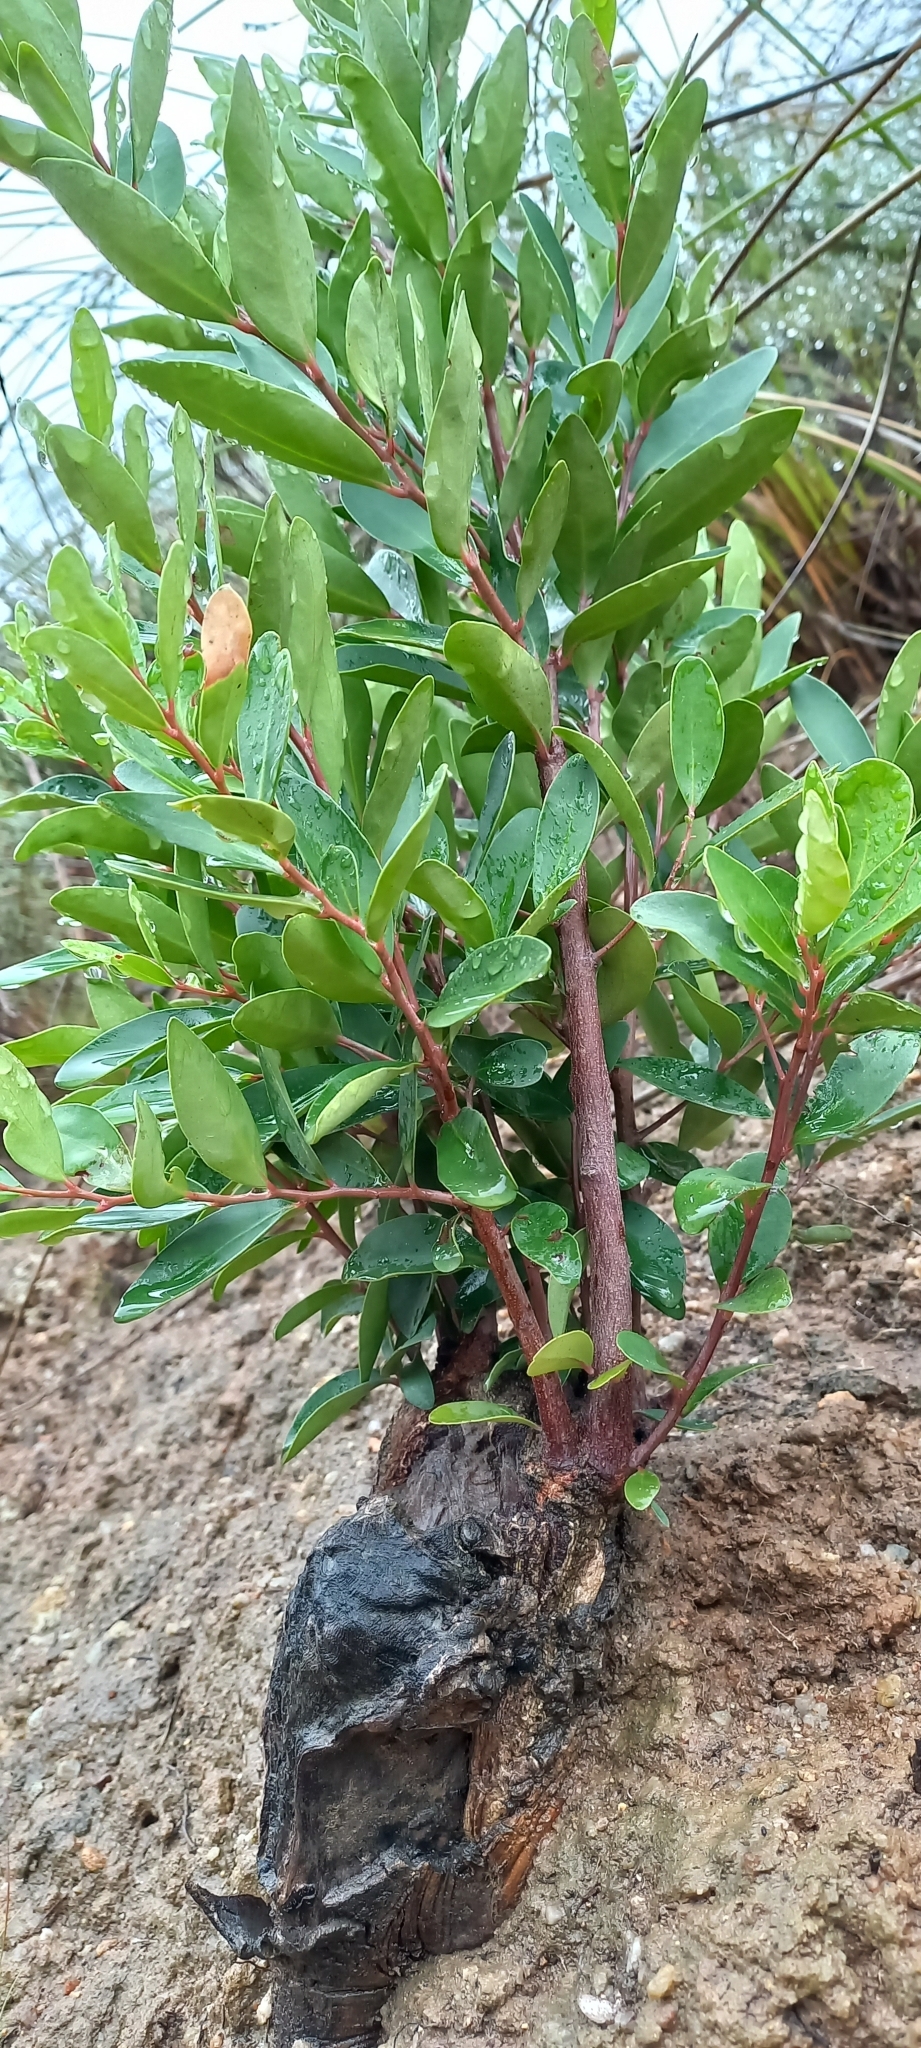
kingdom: Plantae
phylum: Tracheophyta
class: Magnoliopsida
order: Celastrales
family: Celastraceae
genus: Gymnosporia
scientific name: Gymnosporia laurina
